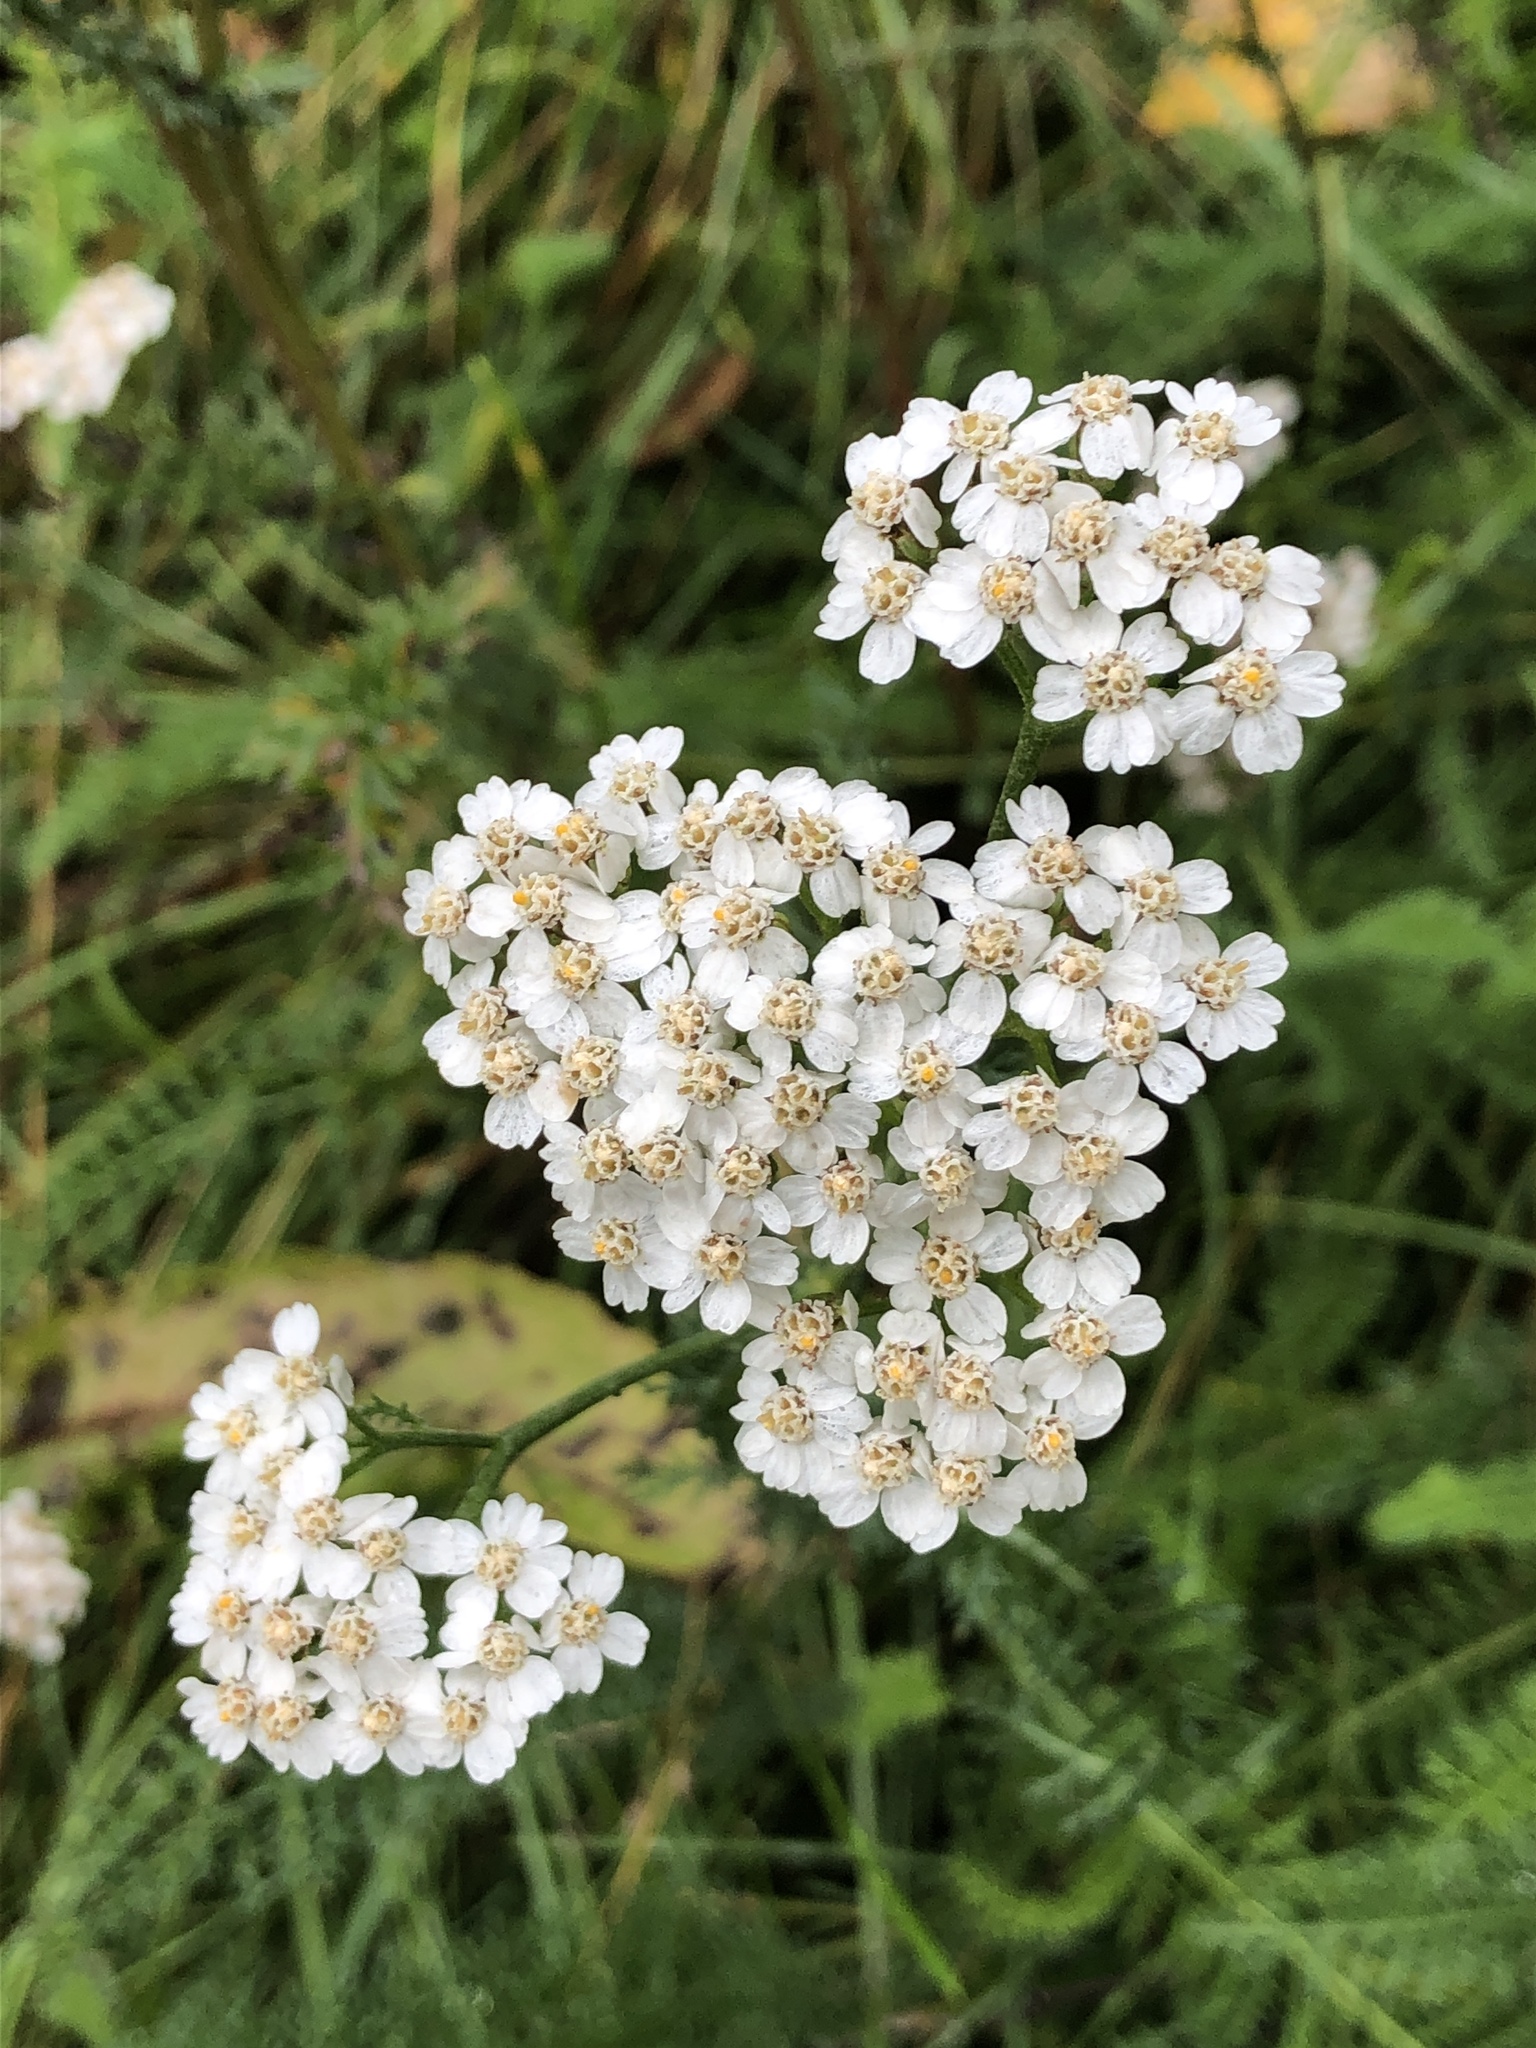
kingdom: Plantae
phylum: Tracheophyta
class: Magnoliopsida
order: Asterales
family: Asteraceae
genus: Achillea
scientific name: Achillea millefolium
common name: Yarrow
